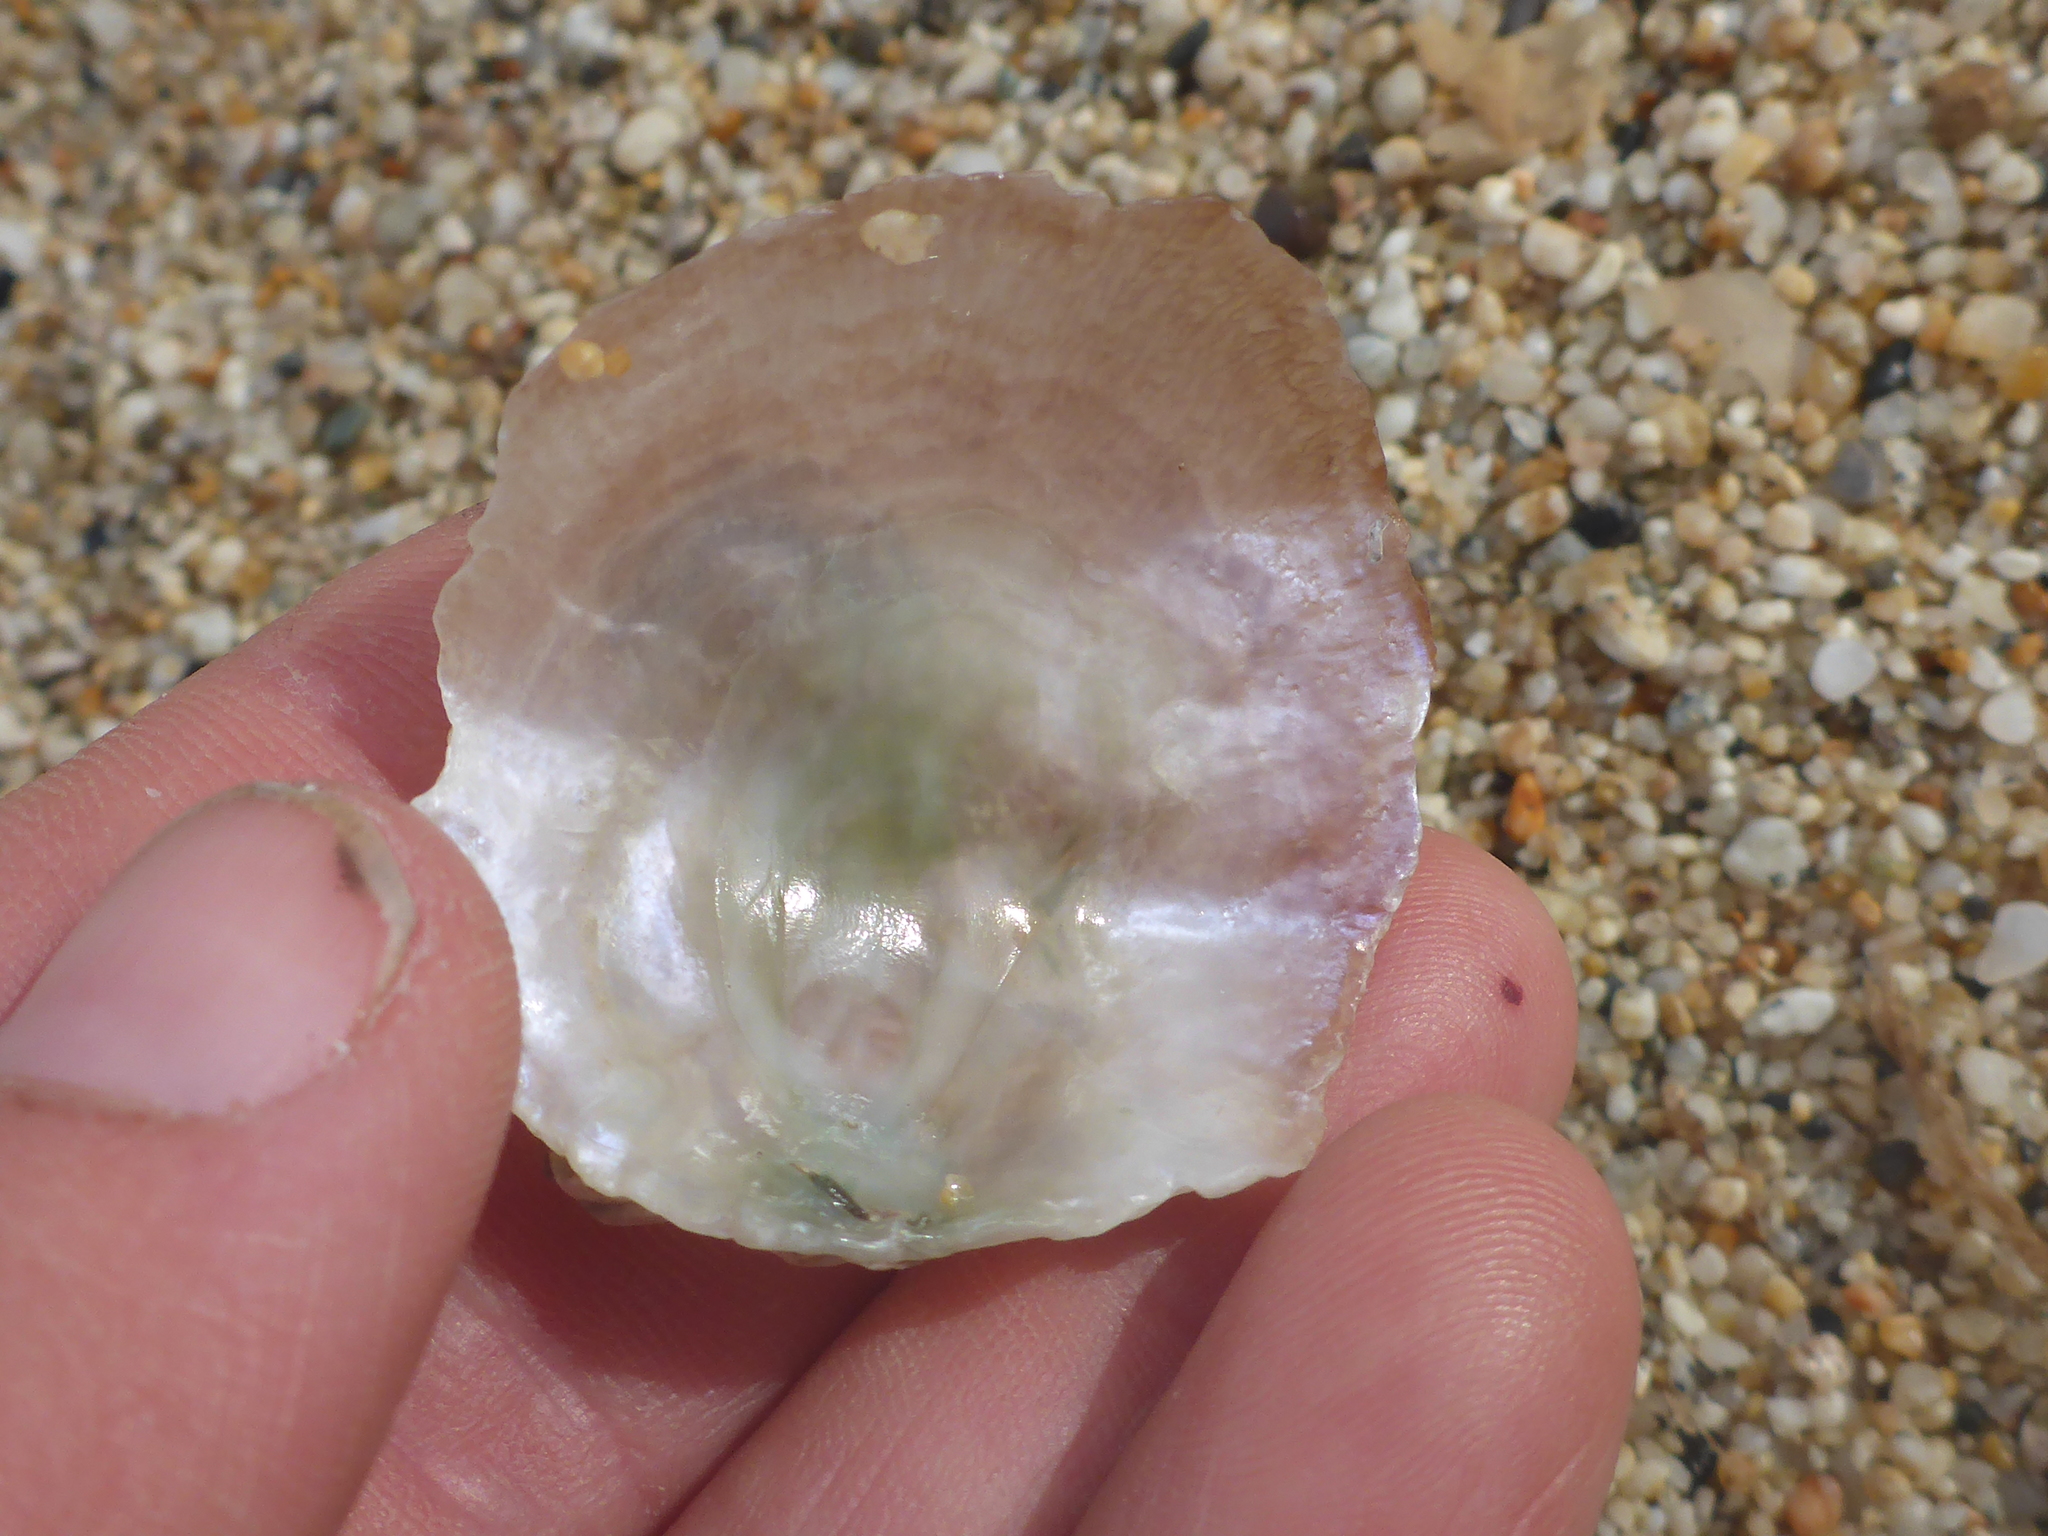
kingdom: Animalia
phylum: Mollusca
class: Bivalvia
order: Pectinida
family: Anomiidae
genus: Pododesmus
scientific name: Pododesmus macrochisma
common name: Alaska jingle
